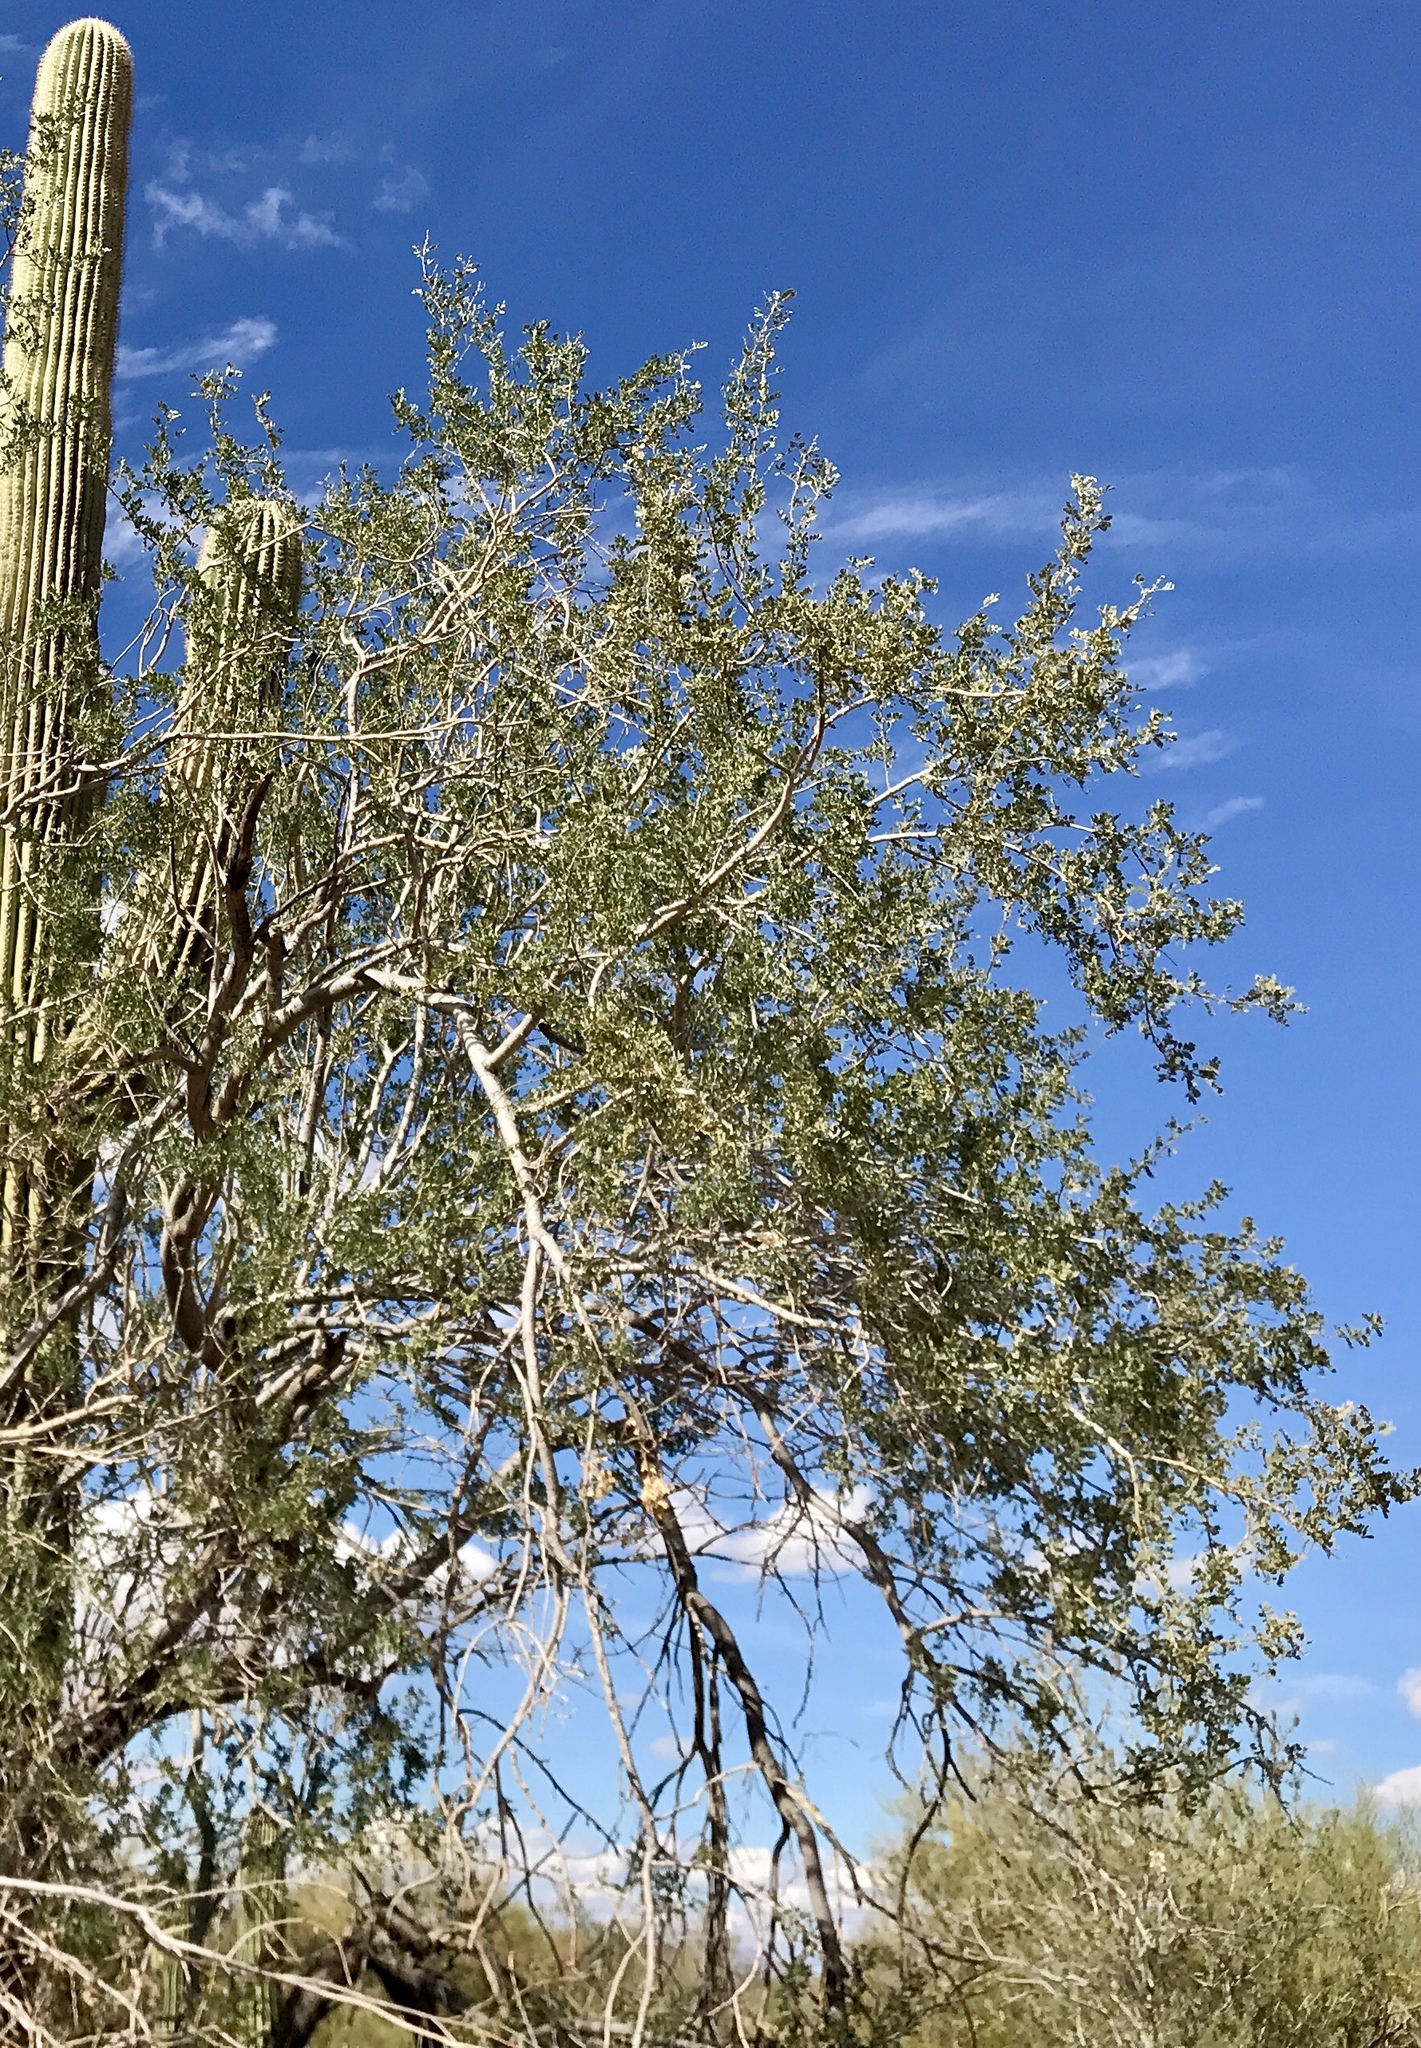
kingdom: Plantae
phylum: Tracheophyta
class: Magnoliopsida
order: Fabales
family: Fabaceae
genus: Olneya
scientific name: Olneya tesota
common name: Desert ironwood
